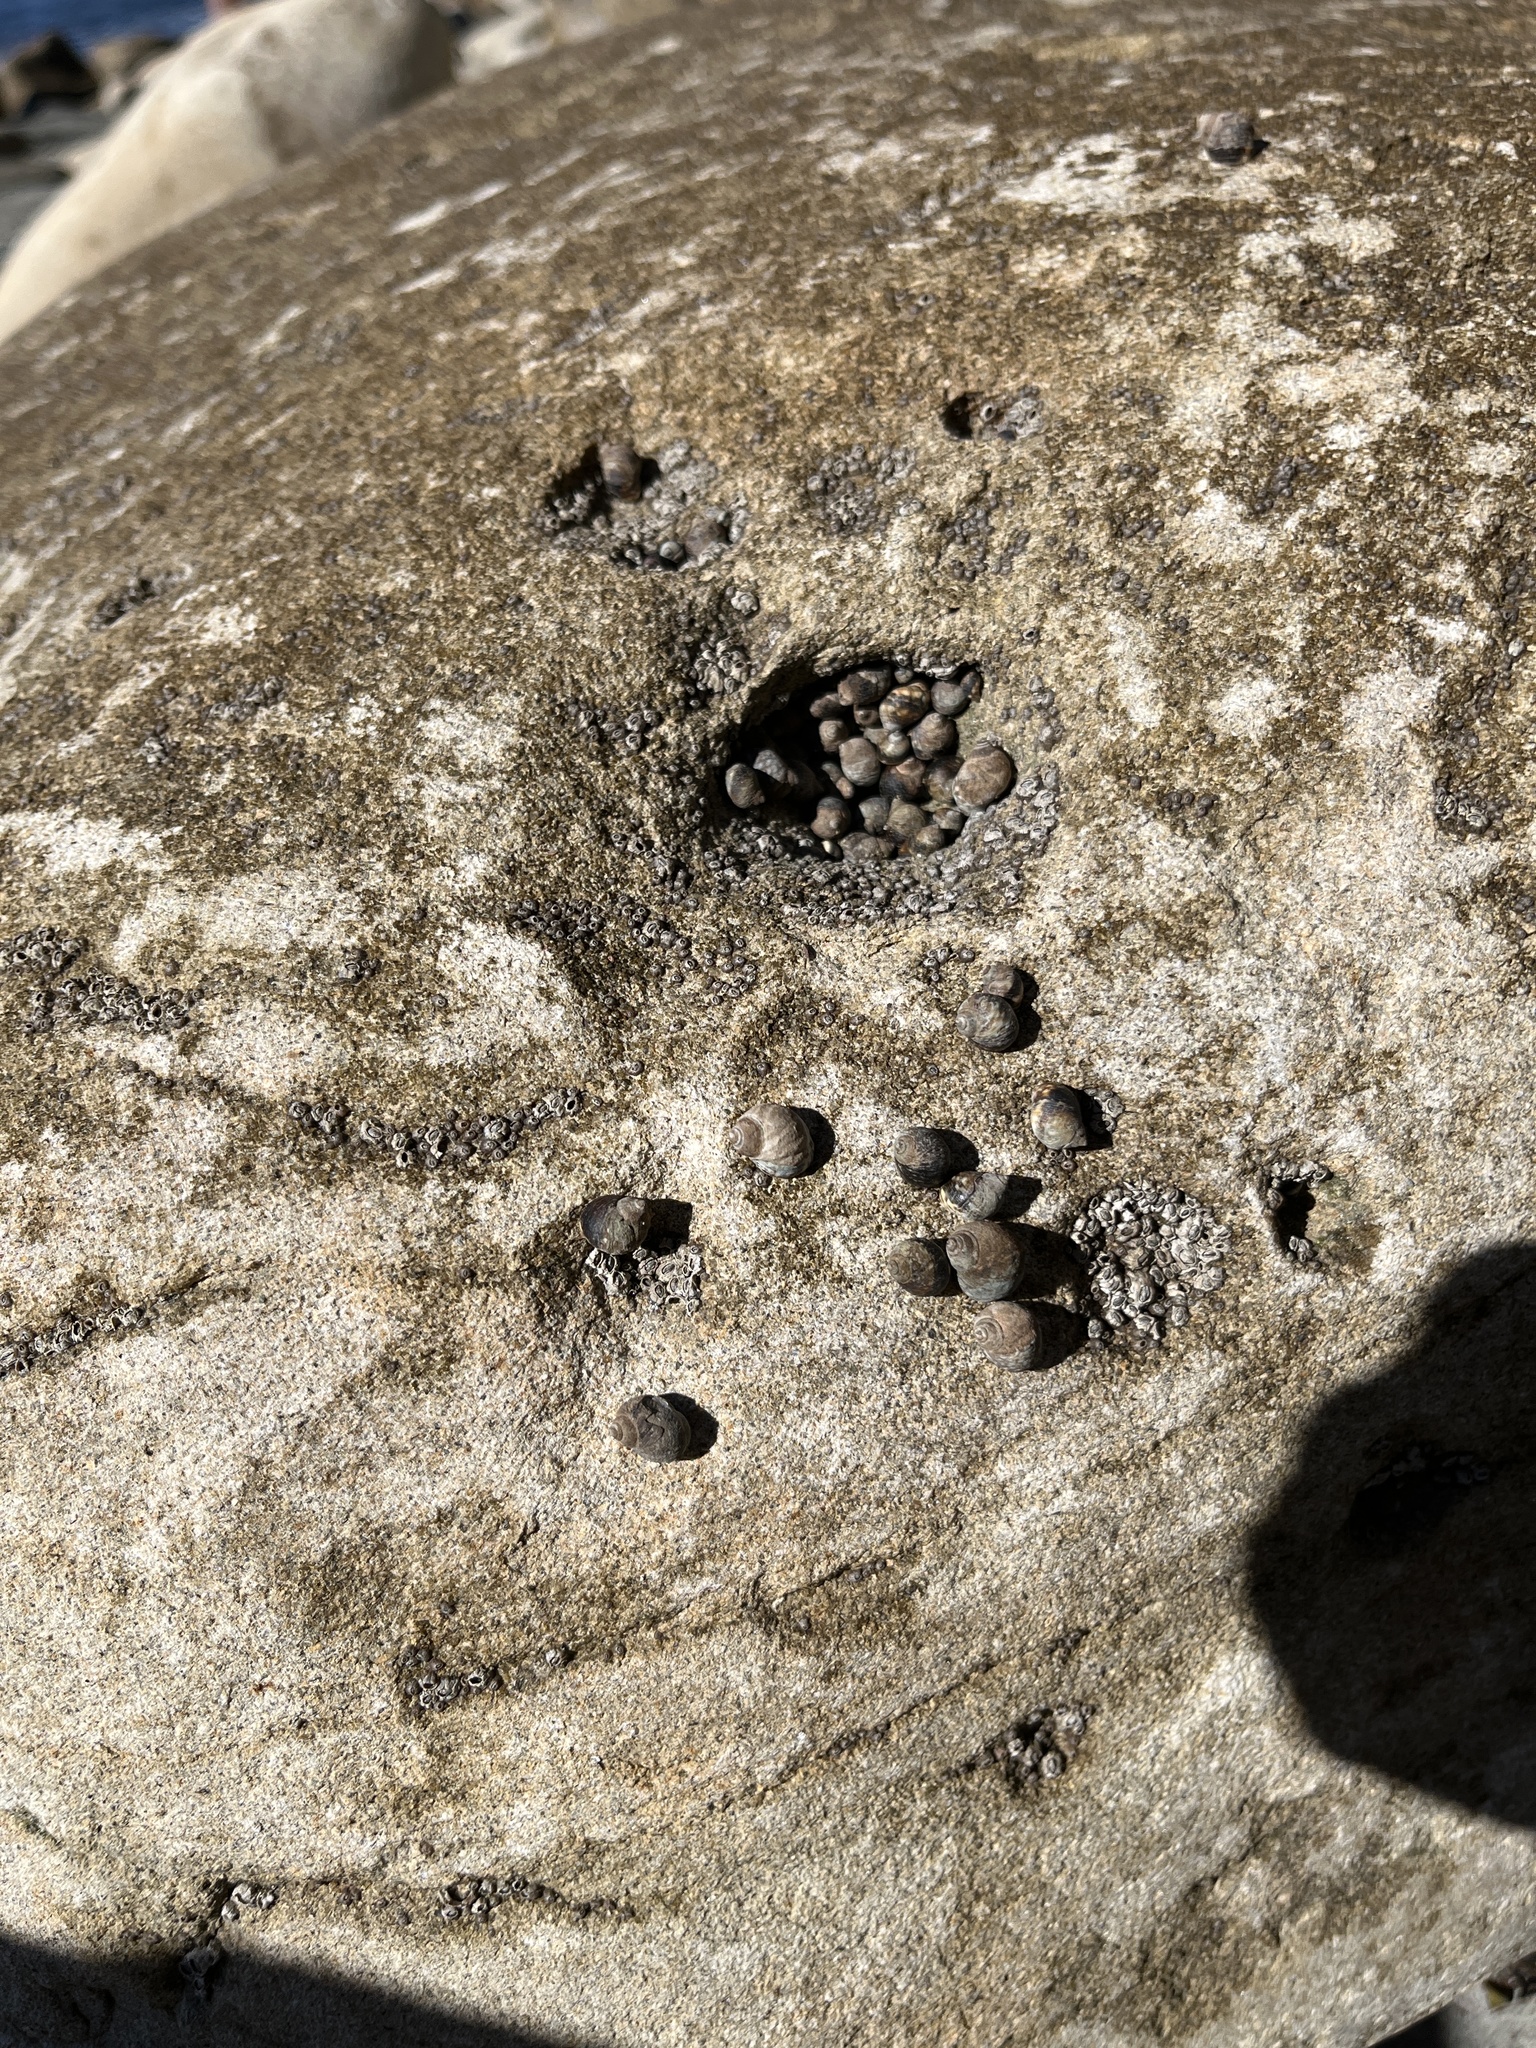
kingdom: Animalia
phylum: Mollusca
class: Gastropoda
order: Littorinimorpha
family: Littorinidae
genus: Littorina
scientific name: Littorina keenae
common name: Eroded periwinkle
